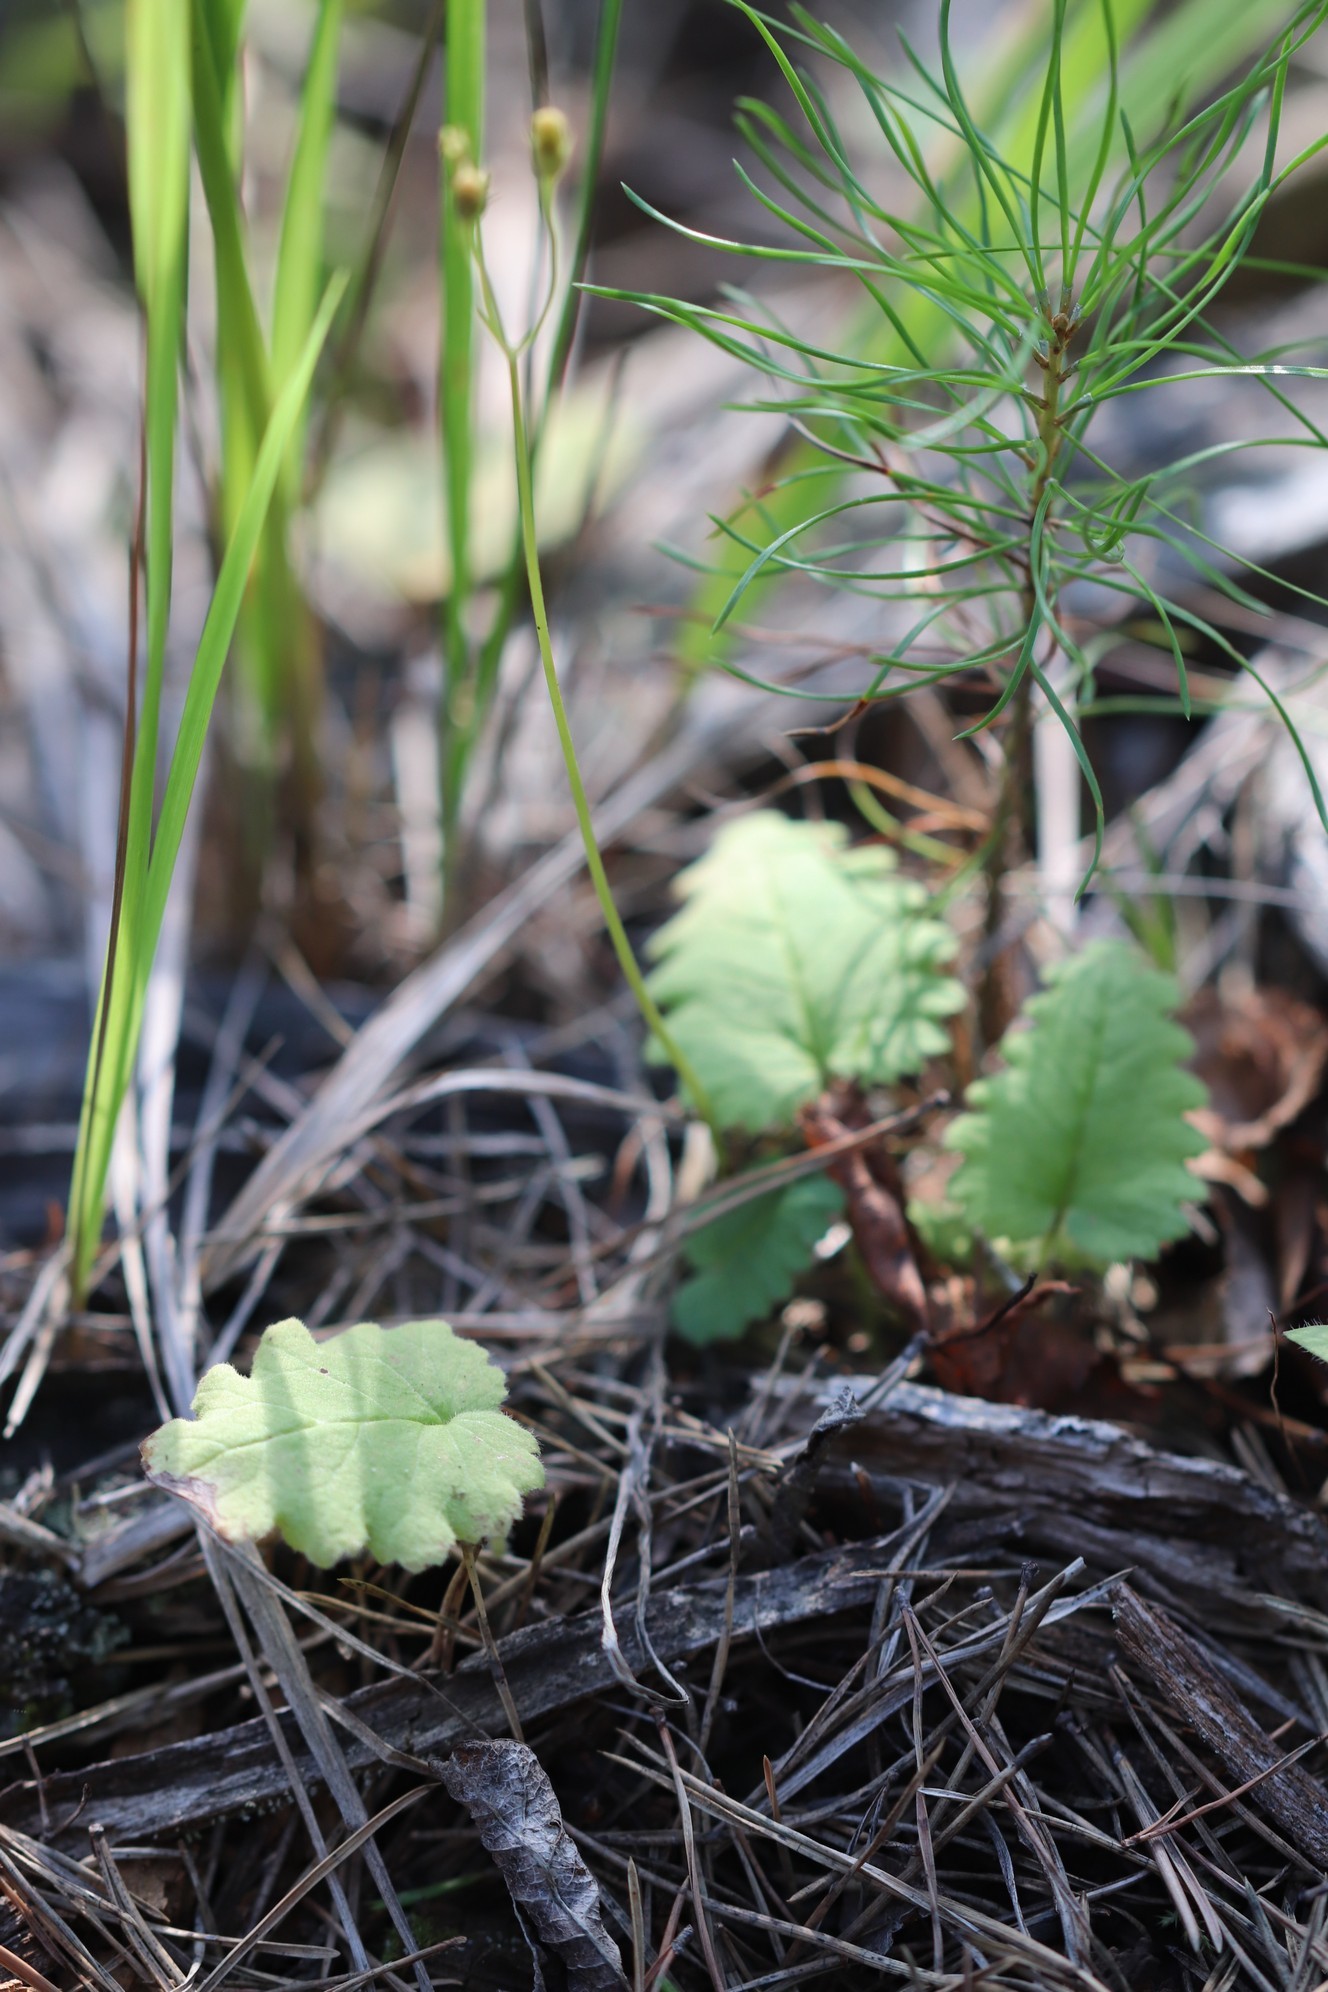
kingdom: Plantae
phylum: Tracheophyta
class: Magnoliopsida
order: Ericales
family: Primulaceae
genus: Primula
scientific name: Primula cortusoides
